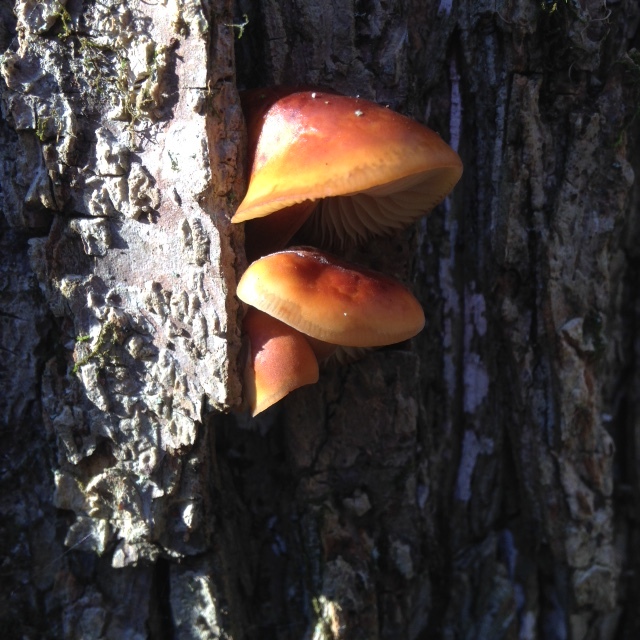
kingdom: Fungi
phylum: Basidiomycota
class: Agaricomycetes
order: Agaricales
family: Physalacriaceae
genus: Flammulina
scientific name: Flammulina velutipes
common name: Velvet shank
